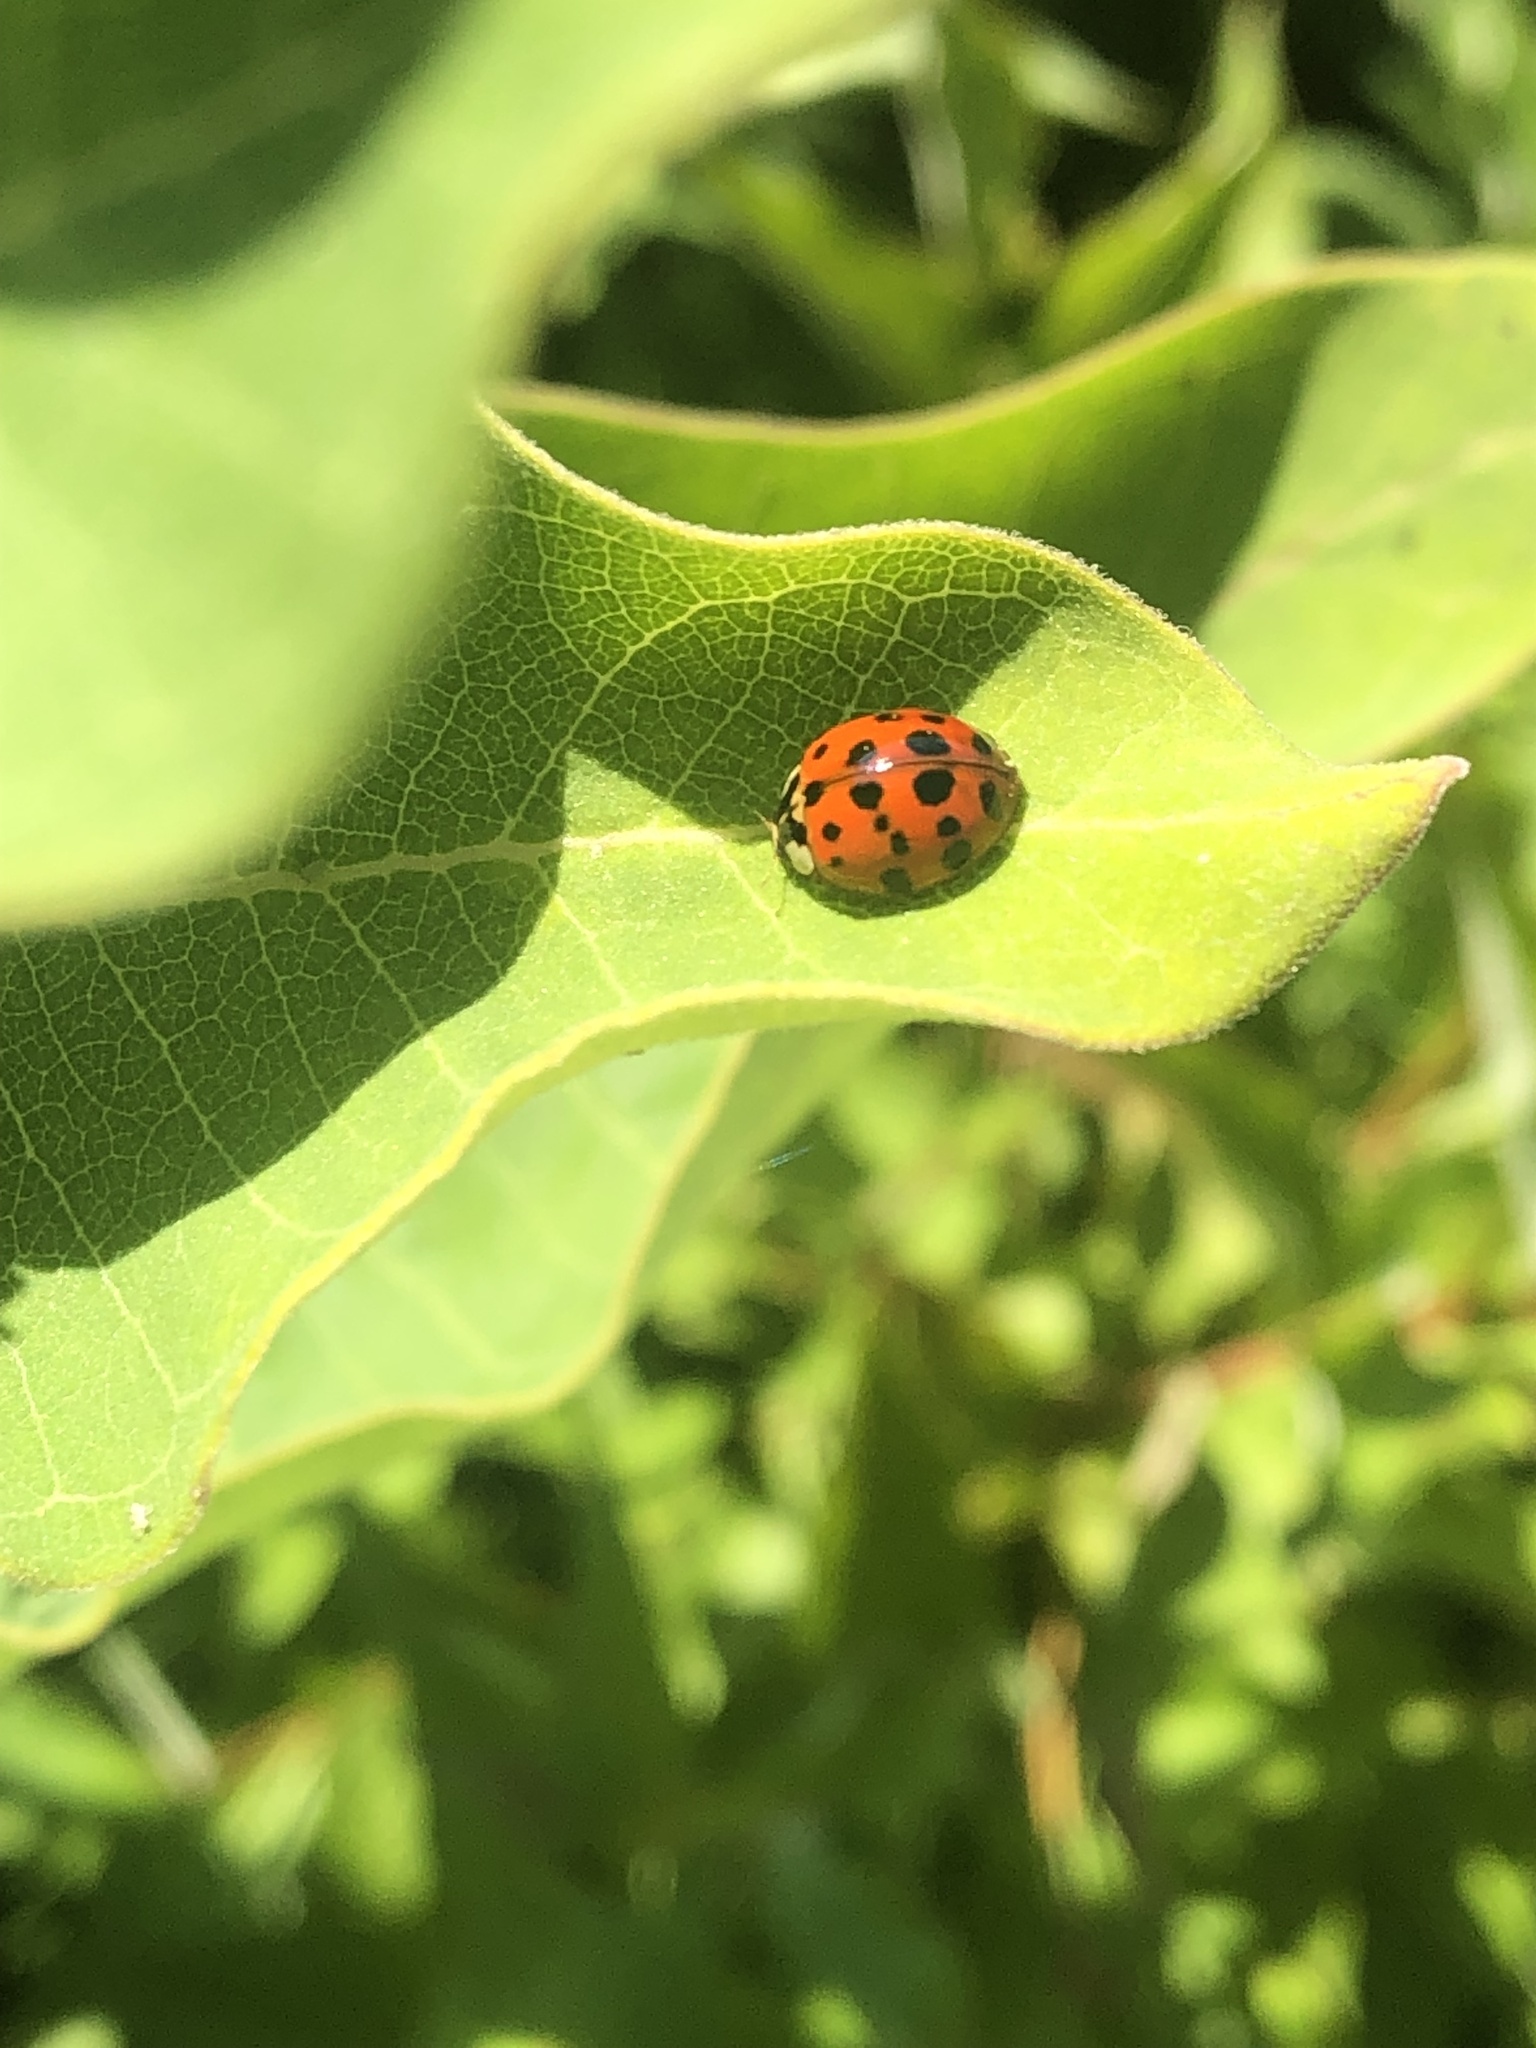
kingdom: Animalia
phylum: Arthropoda
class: Insecta
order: Coleoptera
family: Coccinellidae
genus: Harmonia
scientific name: Harmonia axyridis
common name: Harlequin ladybird
